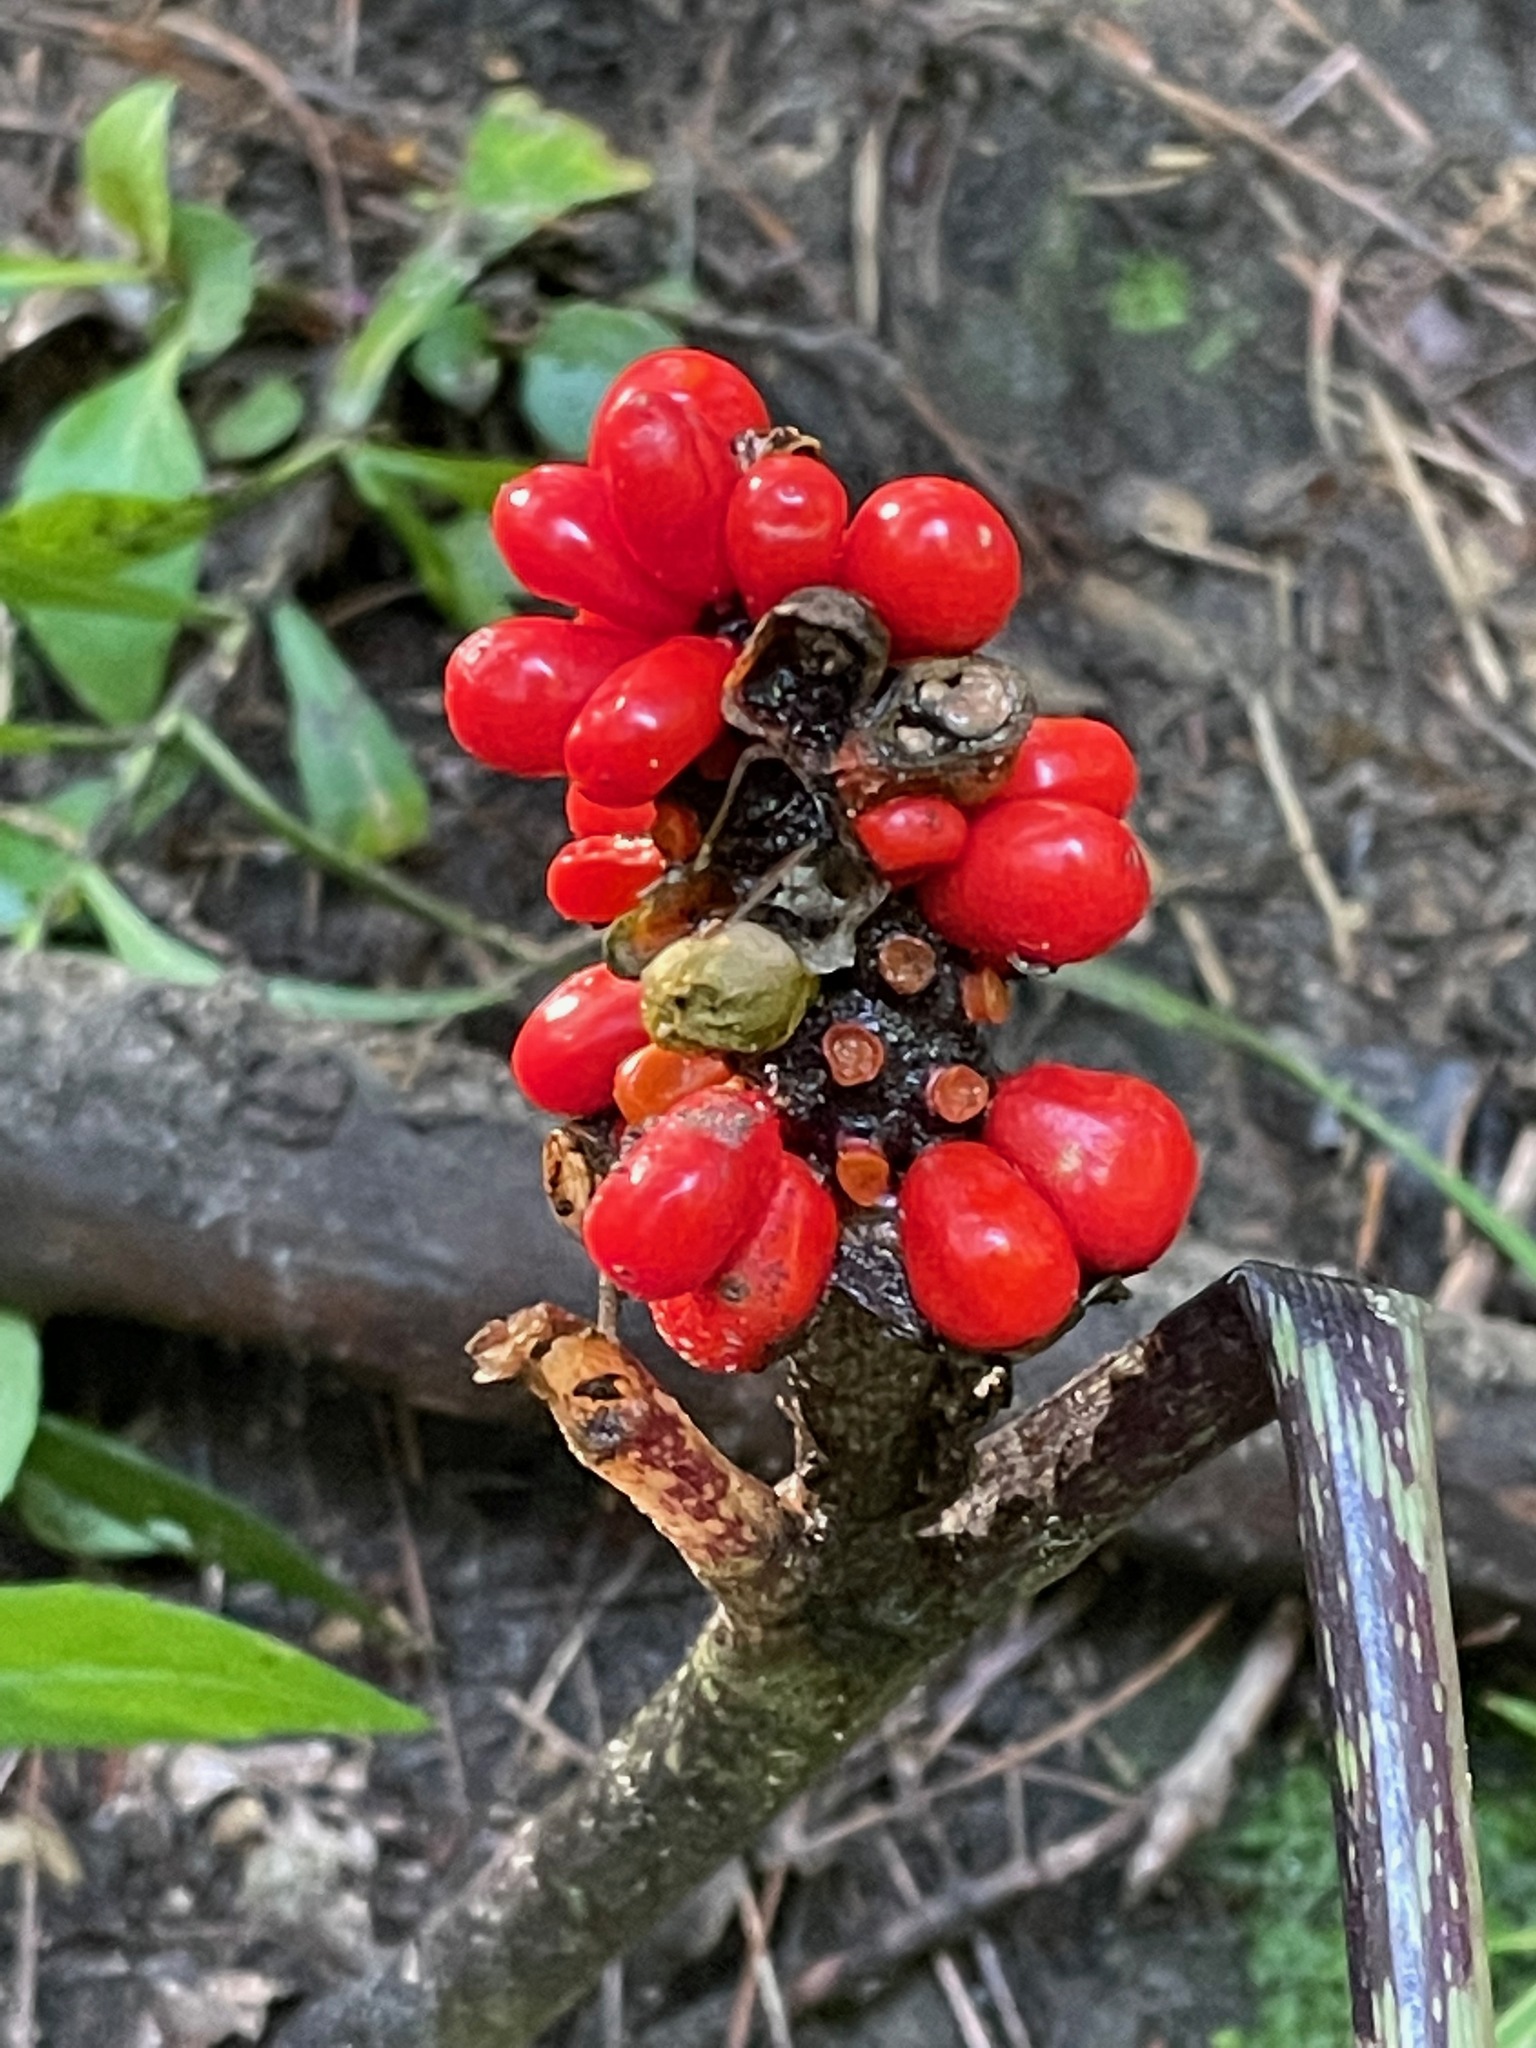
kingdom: Plantae
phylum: Tracheophyta
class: Liliopsida
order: Alismatales
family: Araceae
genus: Arisaema
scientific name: Arisaema
